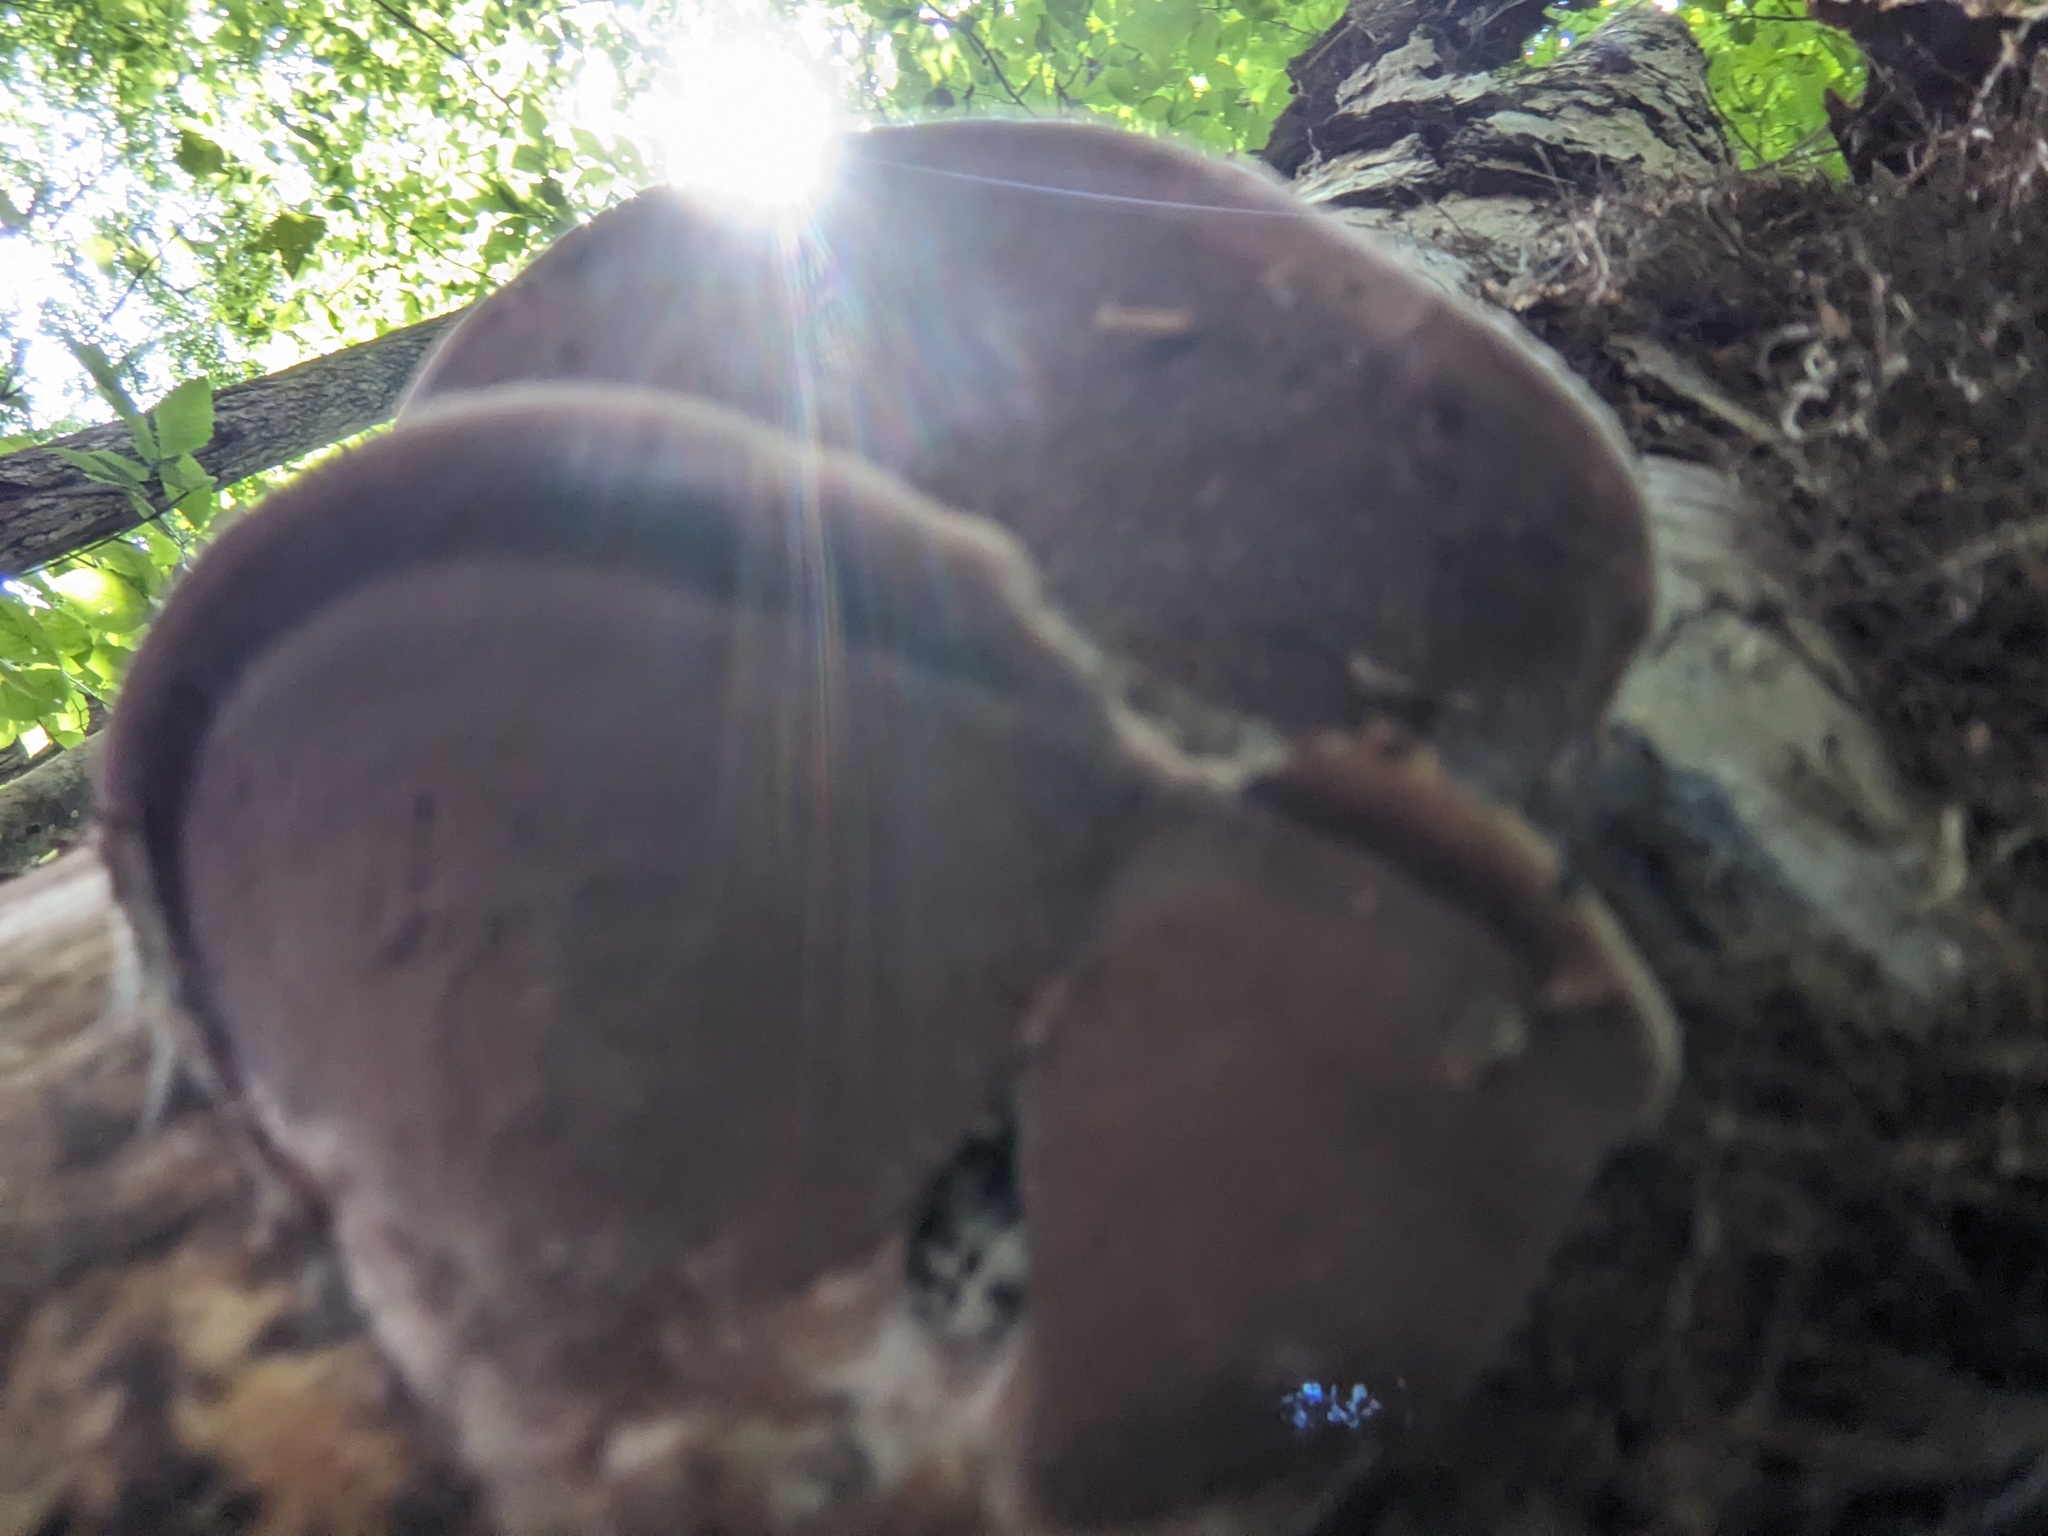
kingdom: Fungi
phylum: Basidiomycota
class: Agaricomycetes
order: Polyporales
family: Steccherinaceae
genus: Nigroporus
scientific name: Nigroporus vinosus
